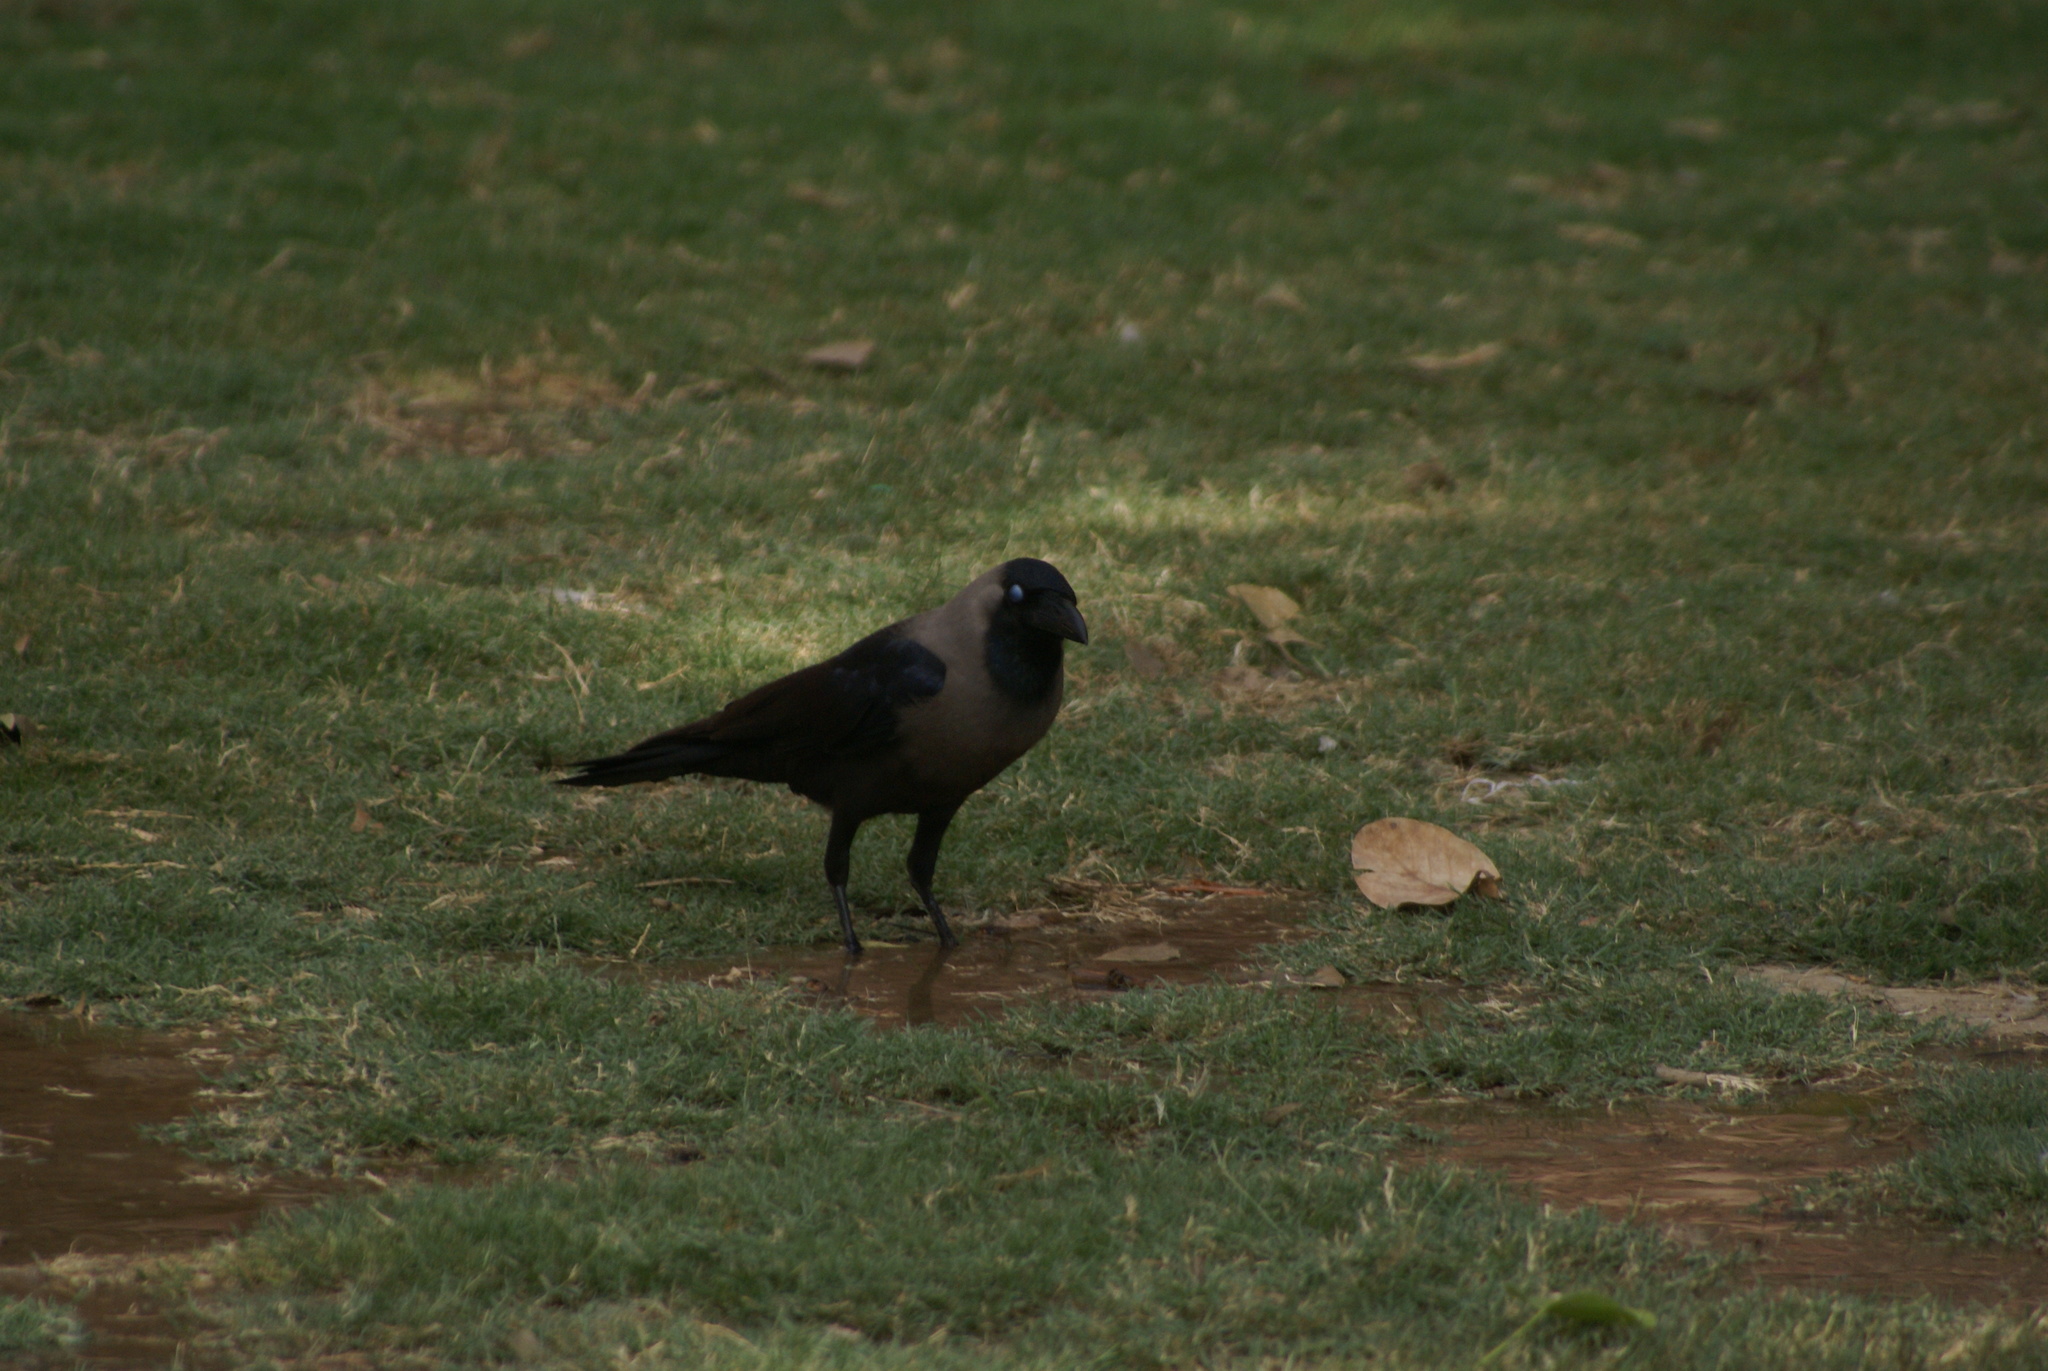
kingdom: Animalia
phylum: Chordata
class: Aves
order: Passeriformes
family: Corvidae
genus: Corvus
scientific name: Corvus splendens
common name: House crow
